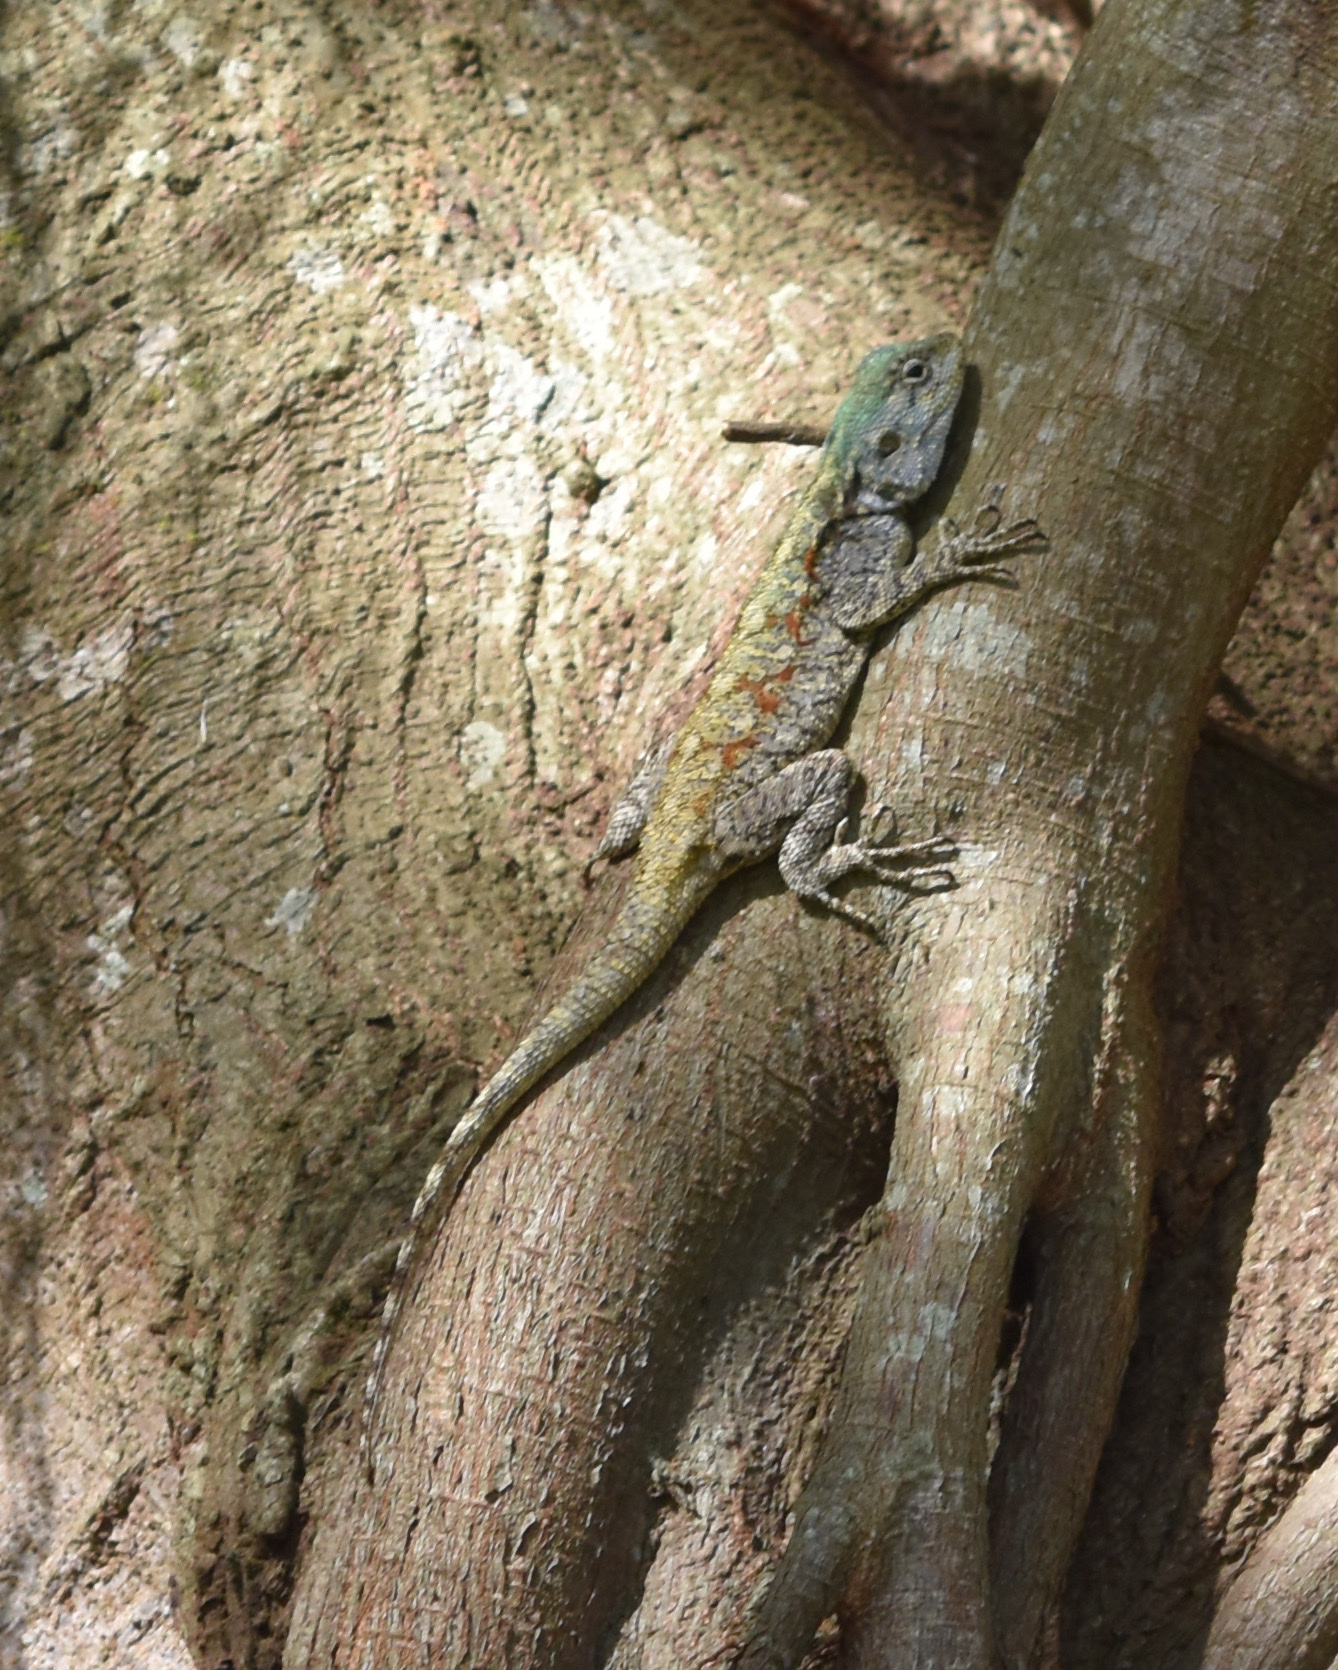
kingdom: Animalia
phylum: Chordata
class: Squamata
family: Agamidae
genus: Acanthocercus
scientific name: Acanthocercus atricollis
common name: Southern tree agama
